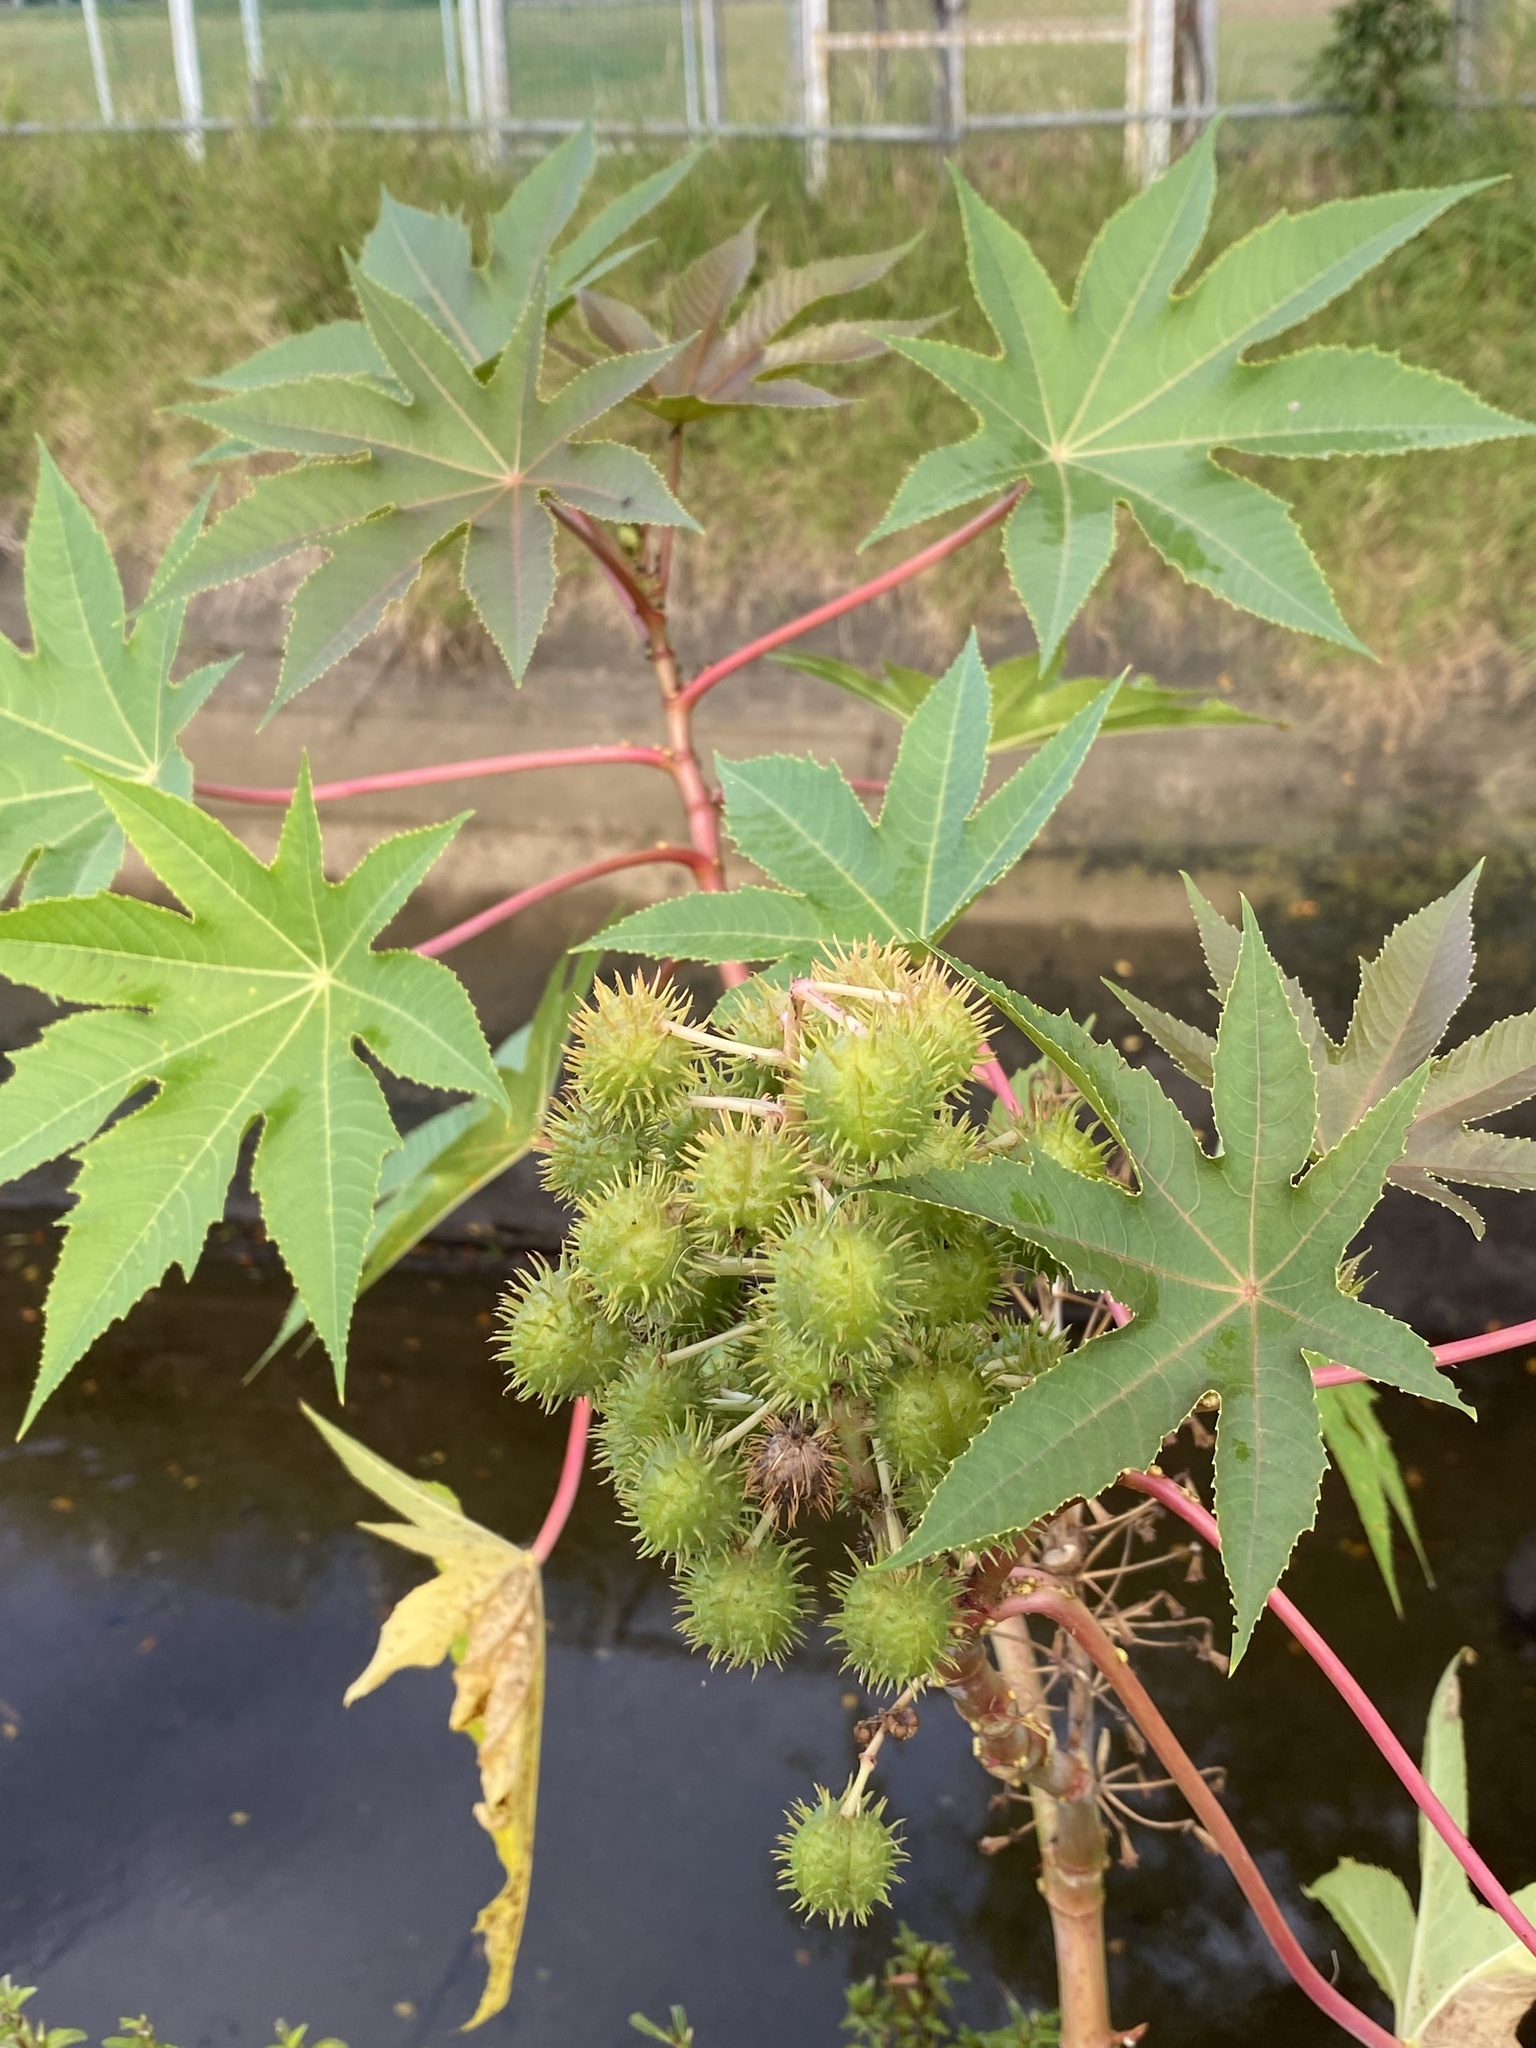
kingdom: Plantae
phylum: Tracheophyta
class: Magnoliopsida
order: Malpighiales
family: Euphorbiaceae
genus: Ricinus
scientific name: Ricinus communis
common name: Castor-oil-plant
